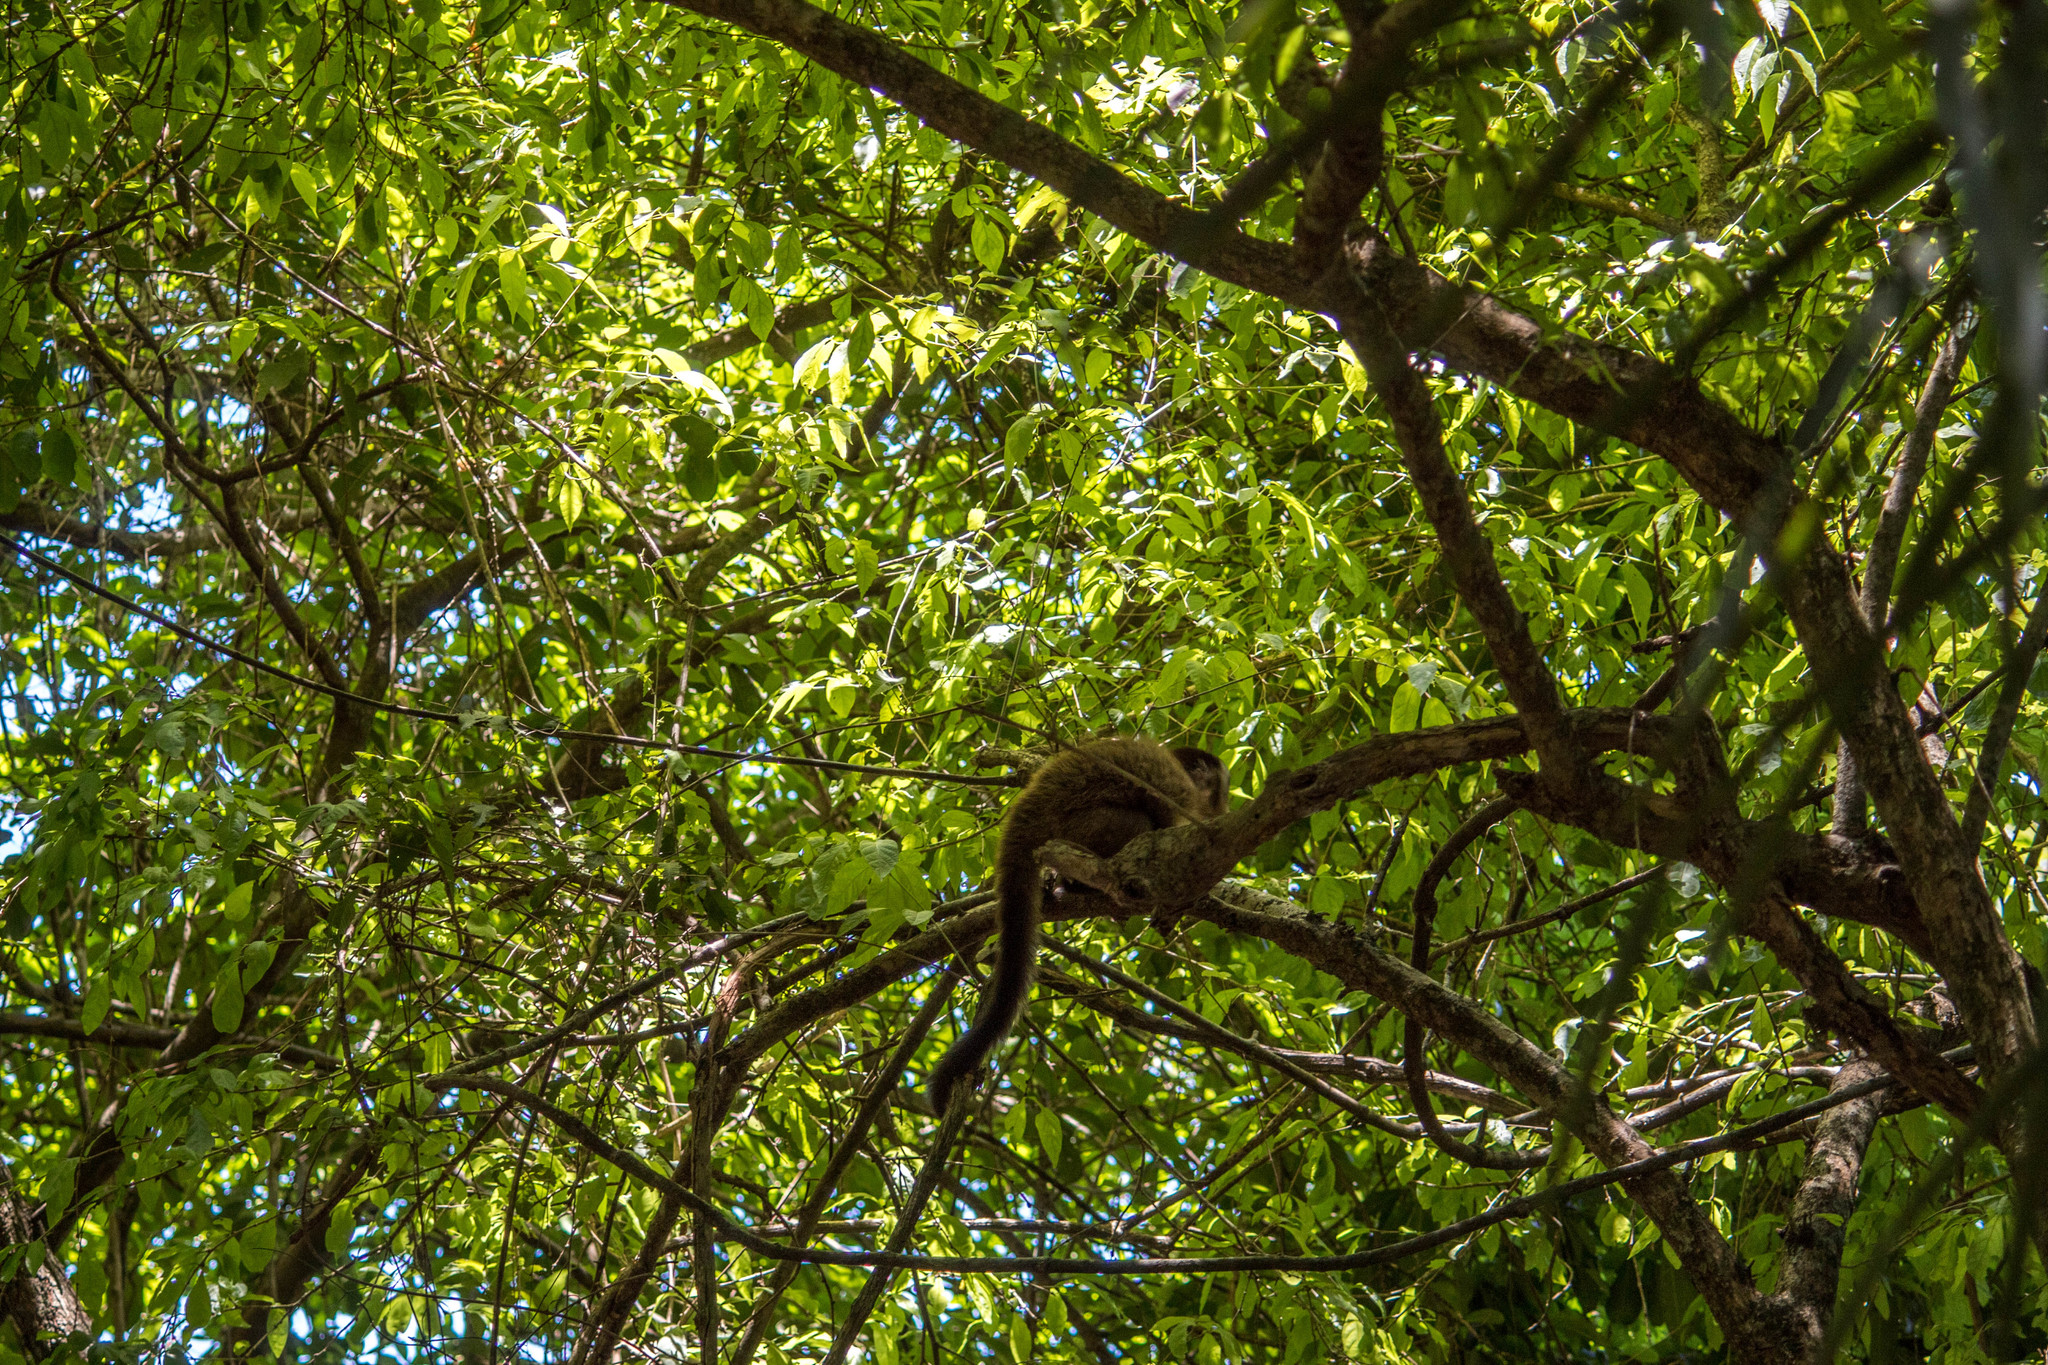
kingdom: Animalia
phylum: Chordata
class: Mammalia
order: Primates
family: Cebidae
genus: Sapajus
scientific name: Sapajus cay
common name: Hooded capuchin
